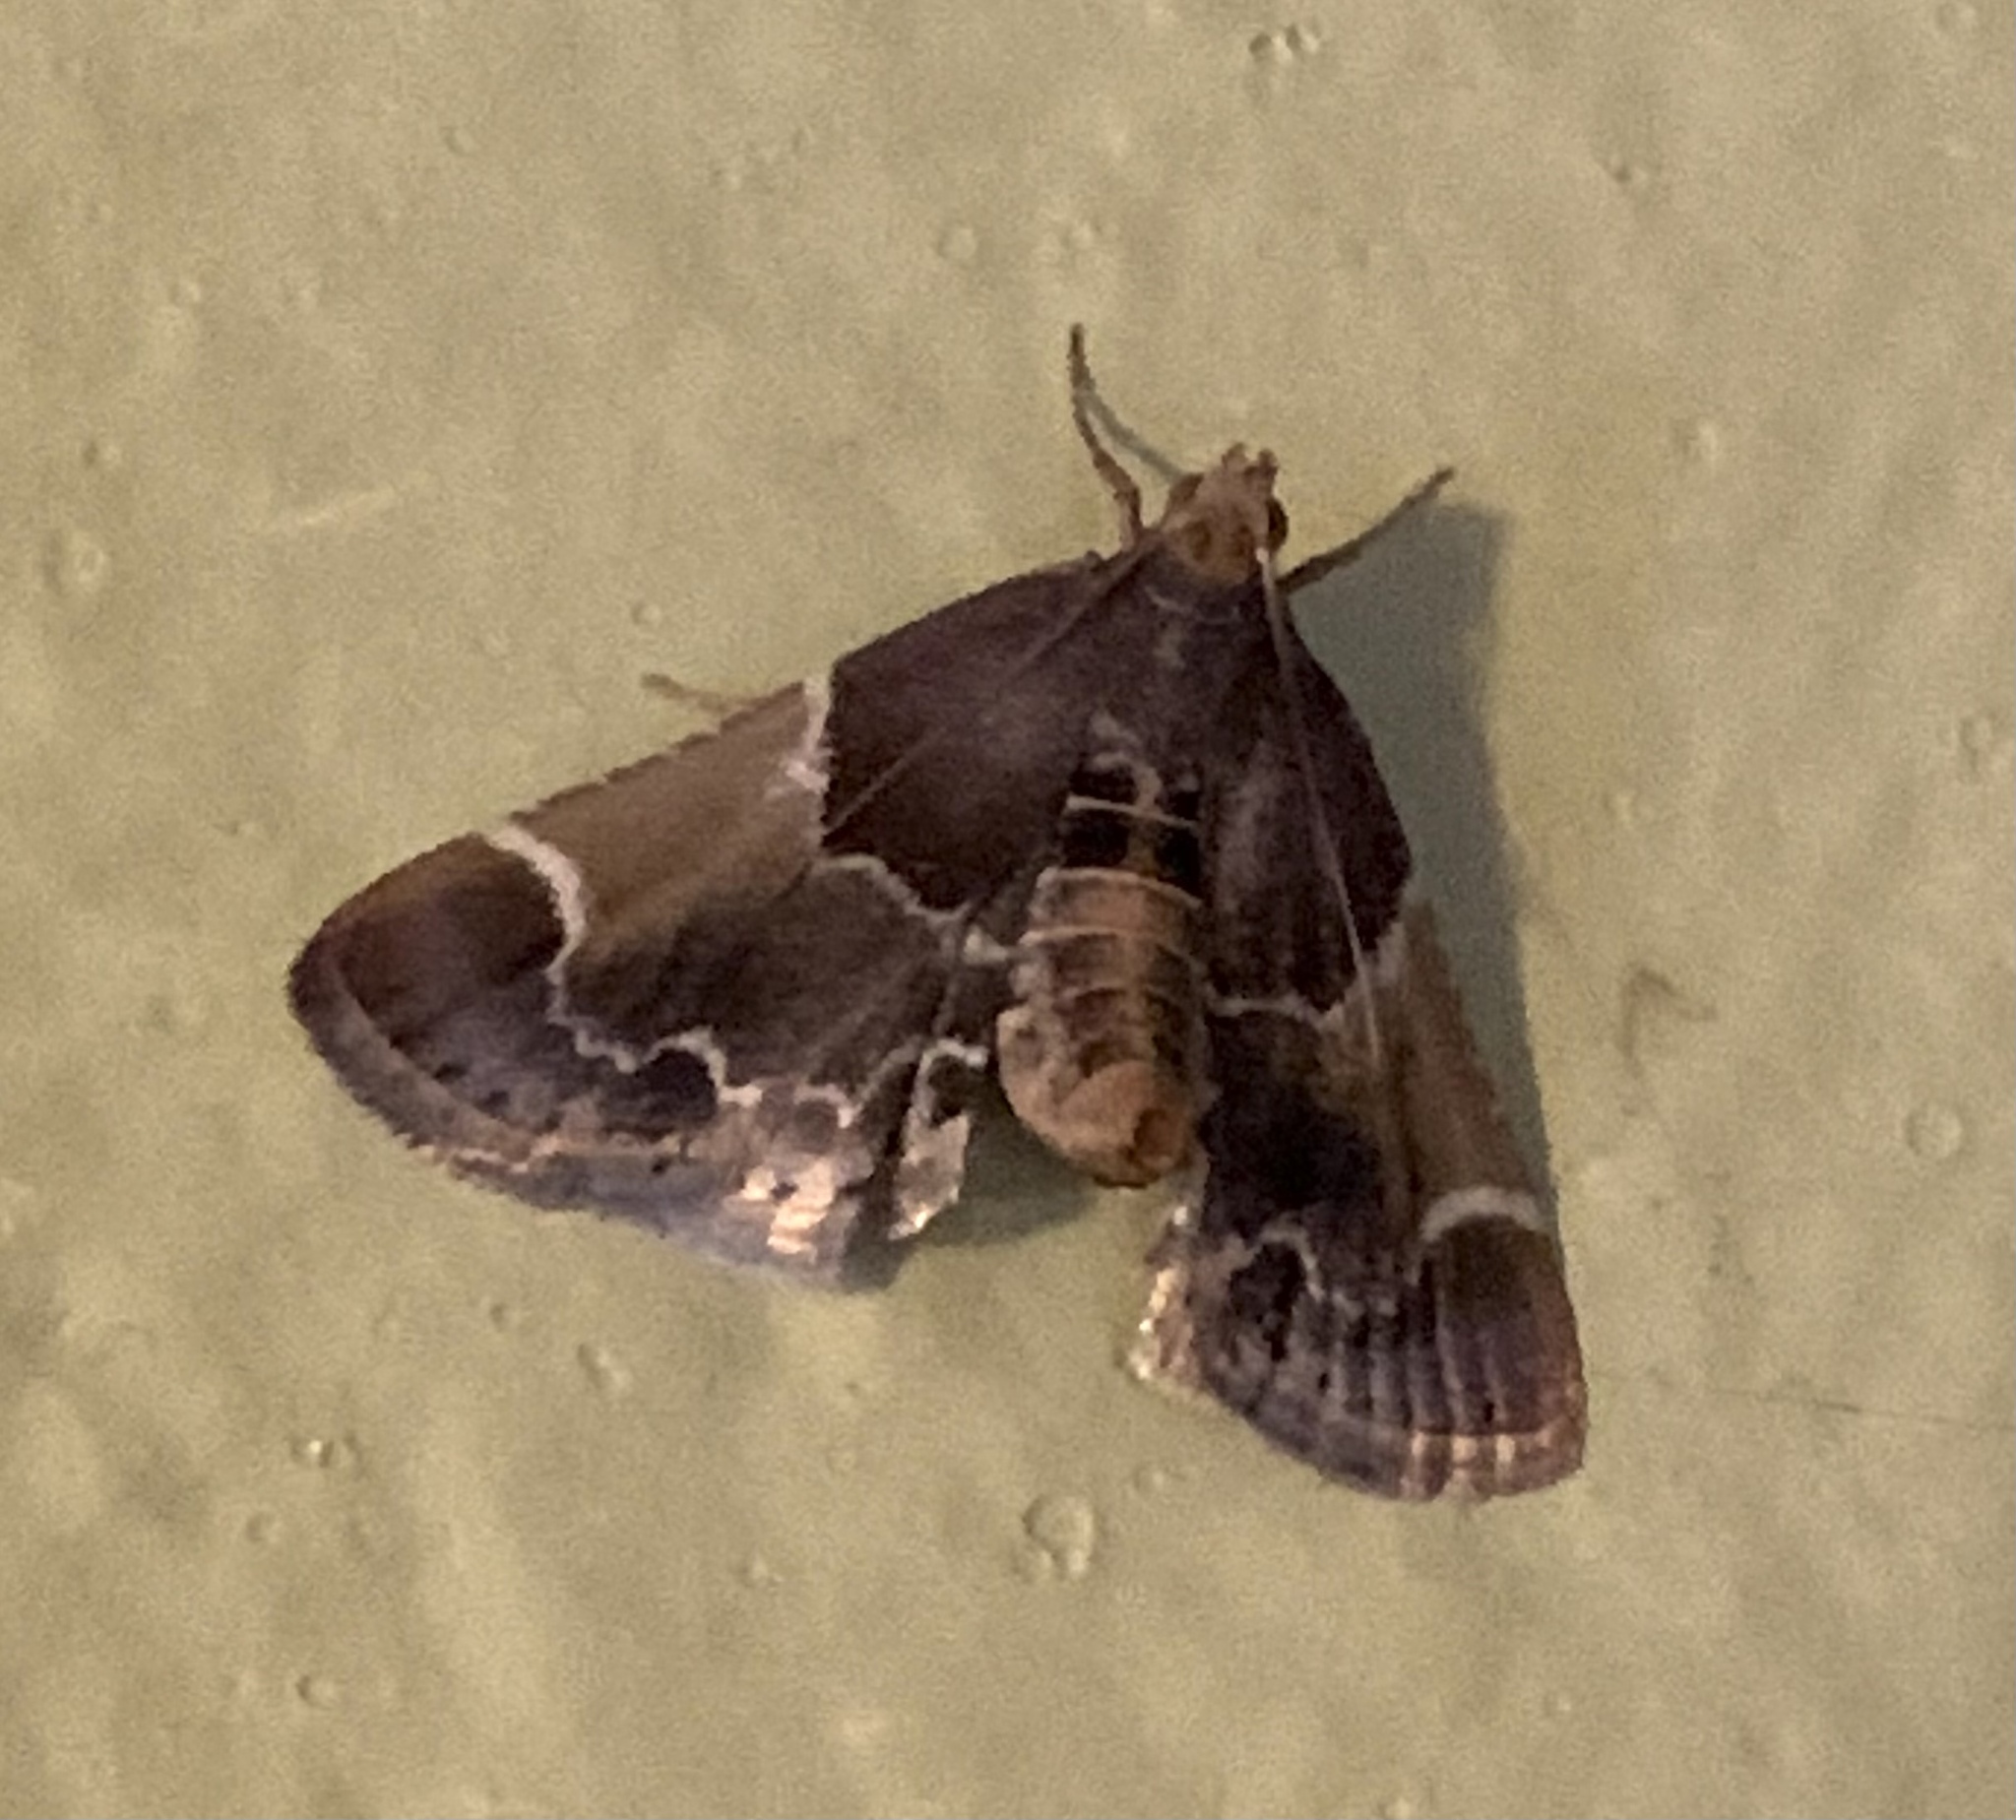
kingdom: Animalia
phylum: Arthropoda
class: Insecta
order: Lepidoptera
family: Pyralidae
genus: Pyralis
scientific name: Pyralis farinalis
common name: Meal moth
